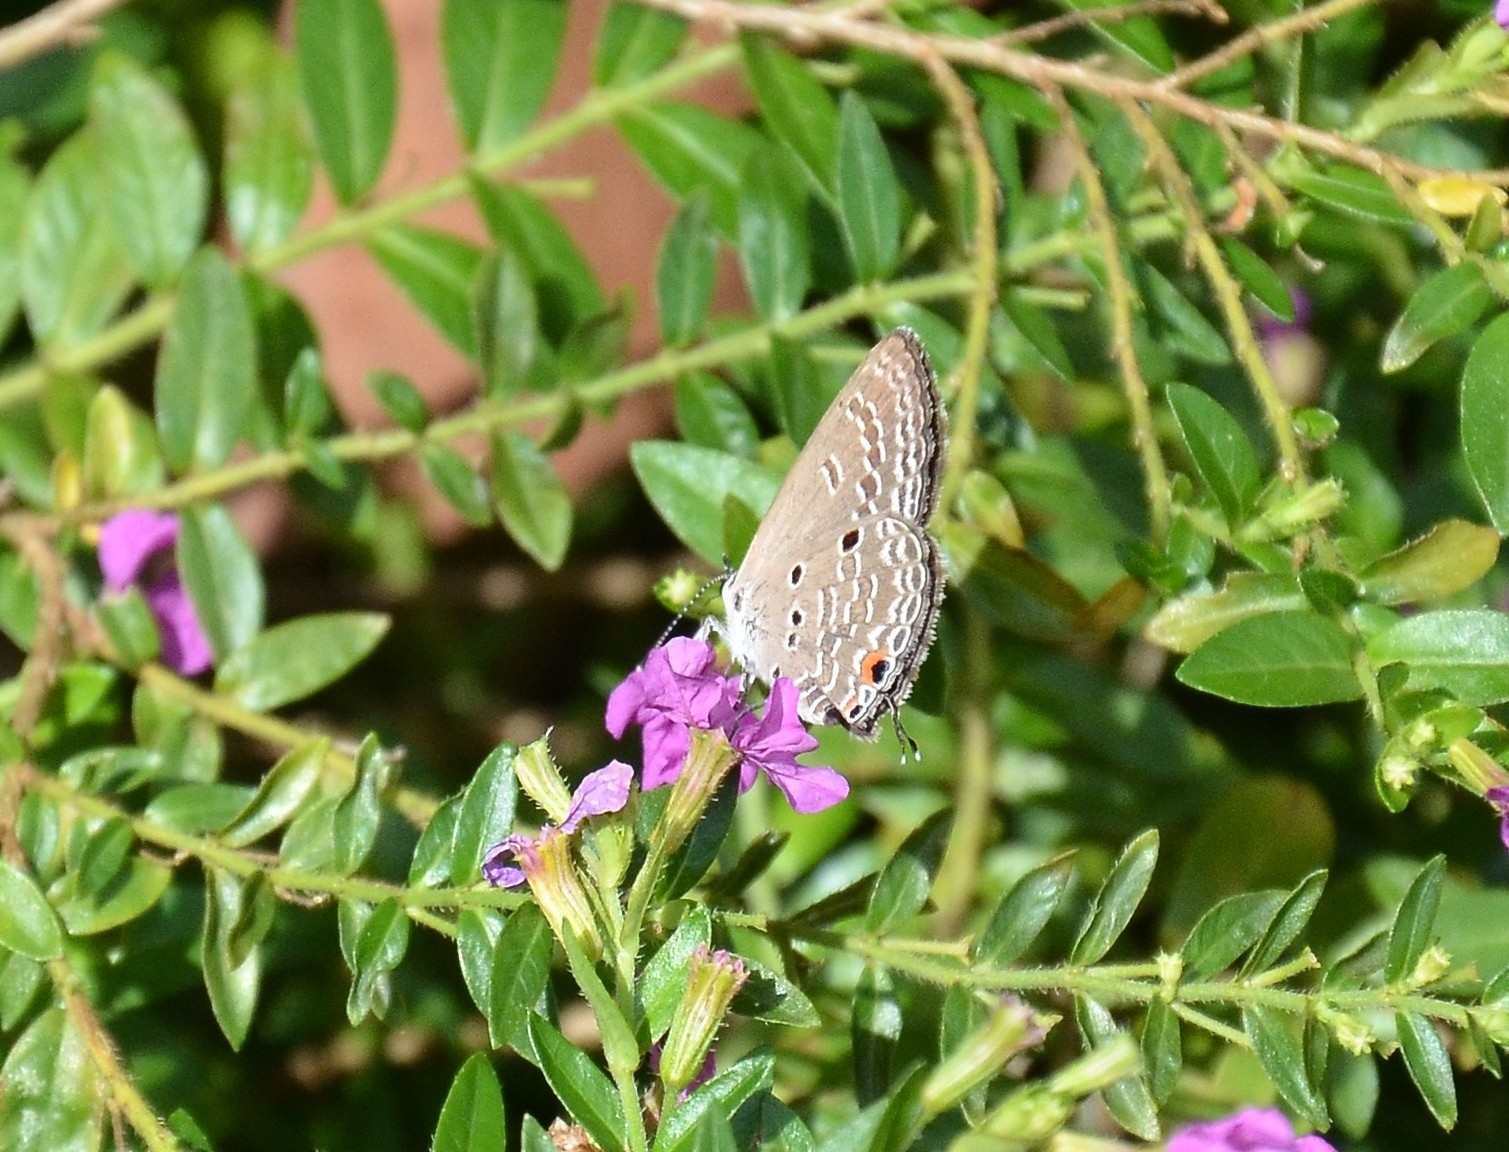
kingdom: Animalia
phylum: Arthropoda
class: Insecta
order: Lepidoptera
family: Lycaenidae
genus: Luthrodes
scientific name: Luthrodes pandava
